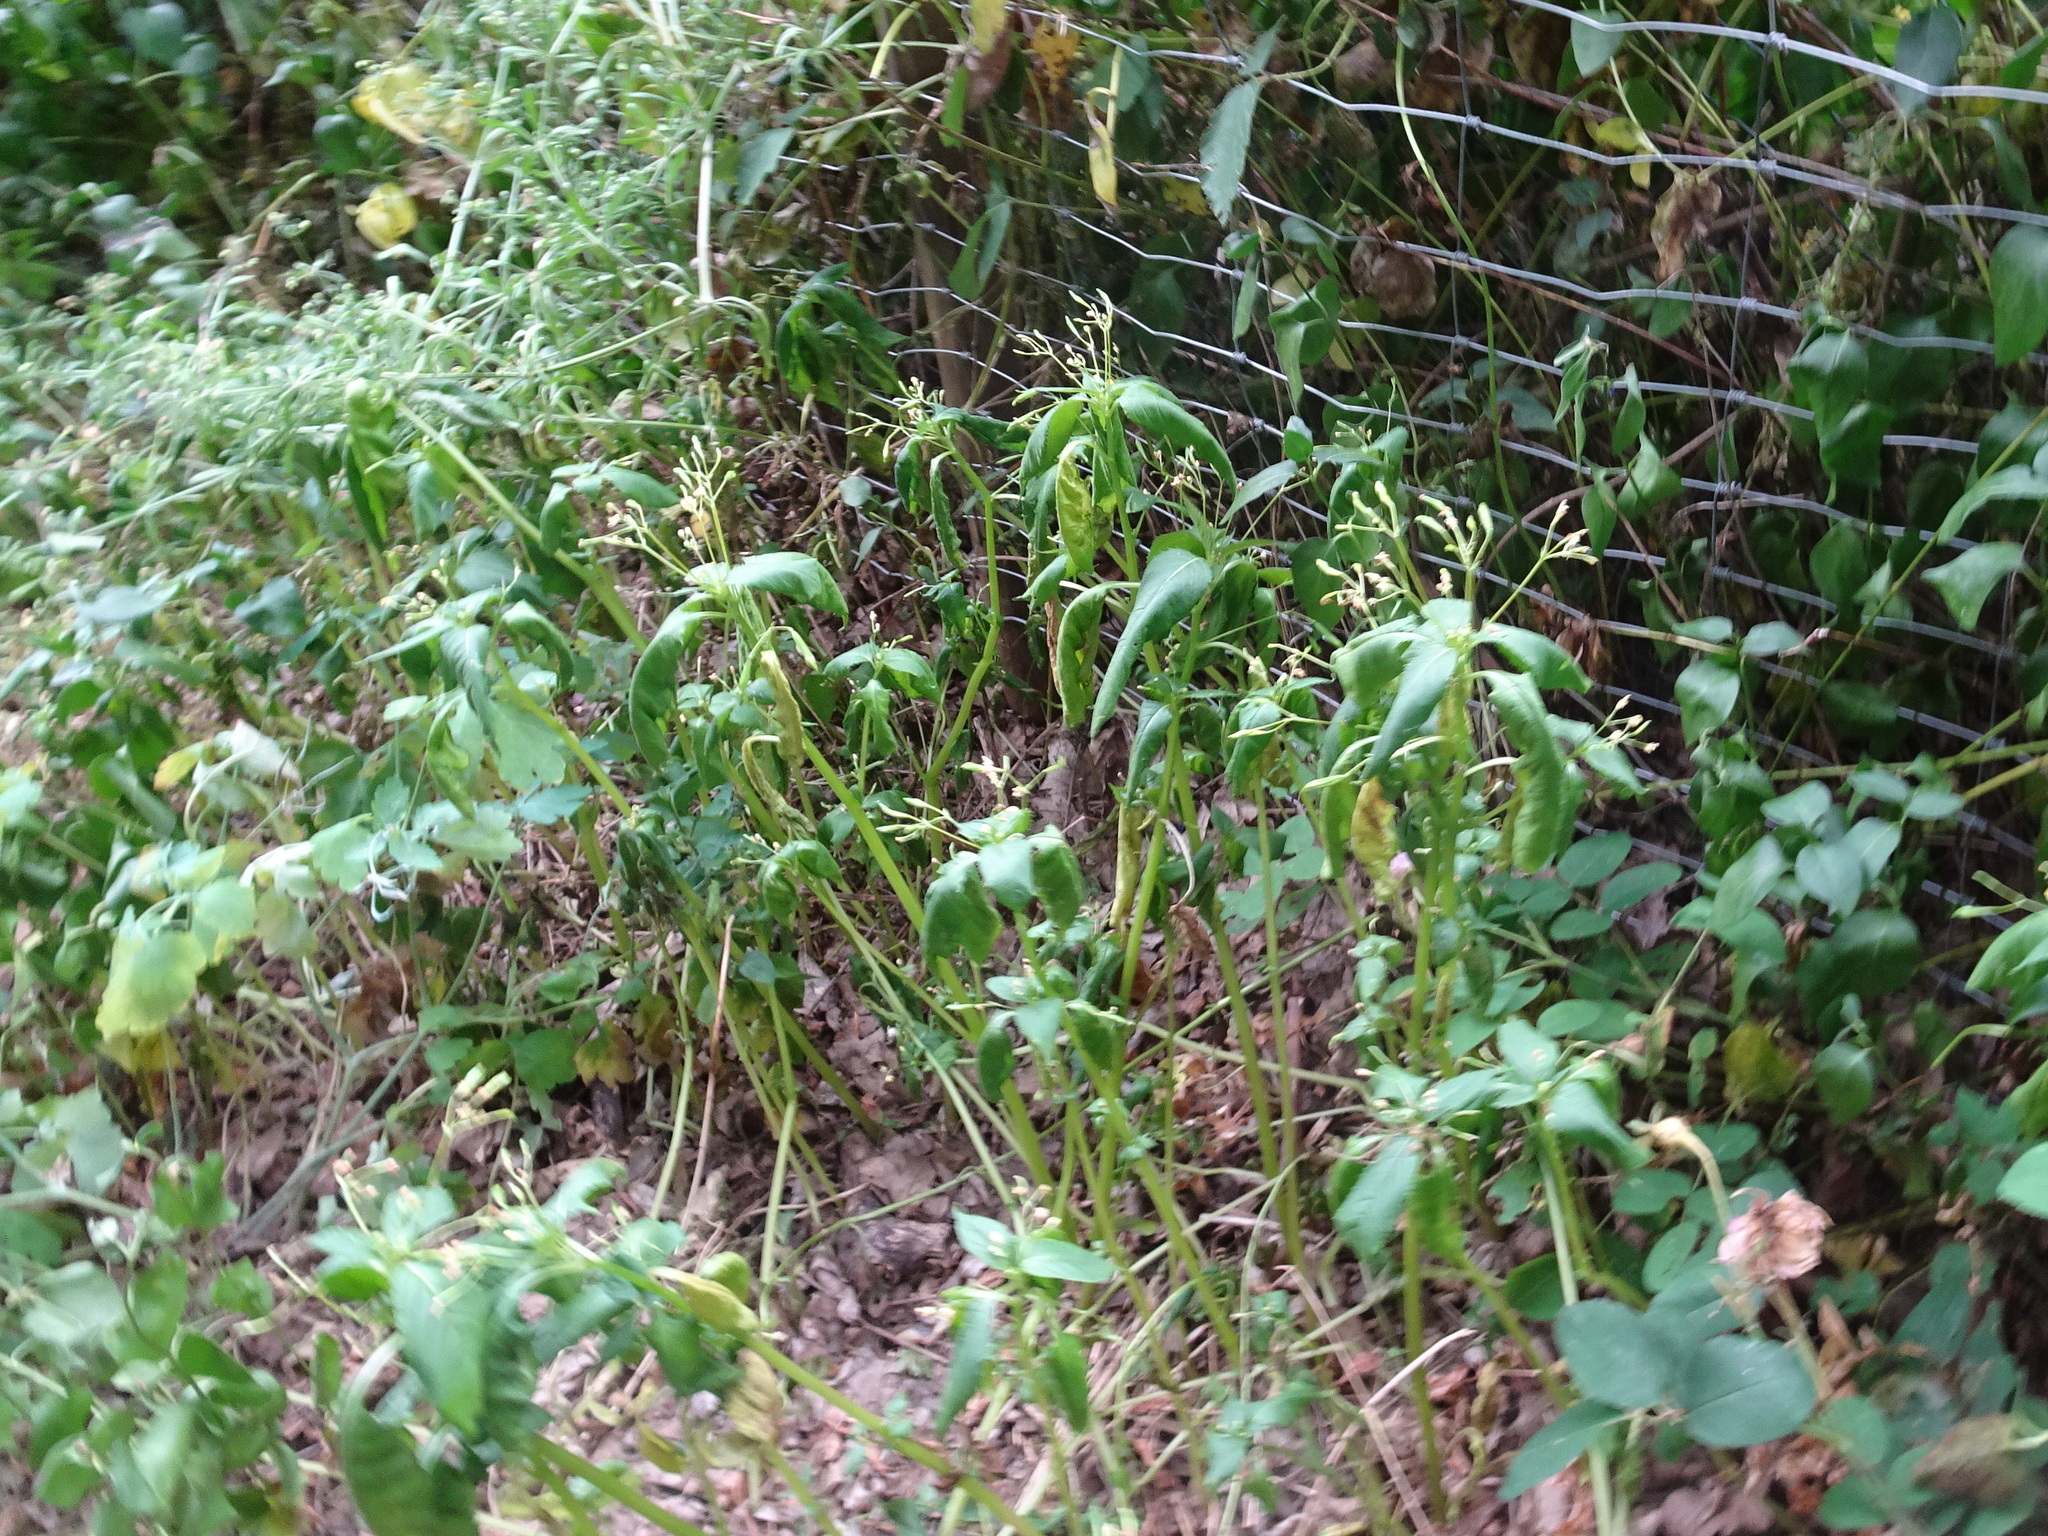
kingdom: Plantae
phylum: Tracheophyta
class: Magnoliopsida
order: Ericales
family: Balsaminaceae
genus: Impatiens
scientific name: Impatiens parviflora
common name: Small balsam
